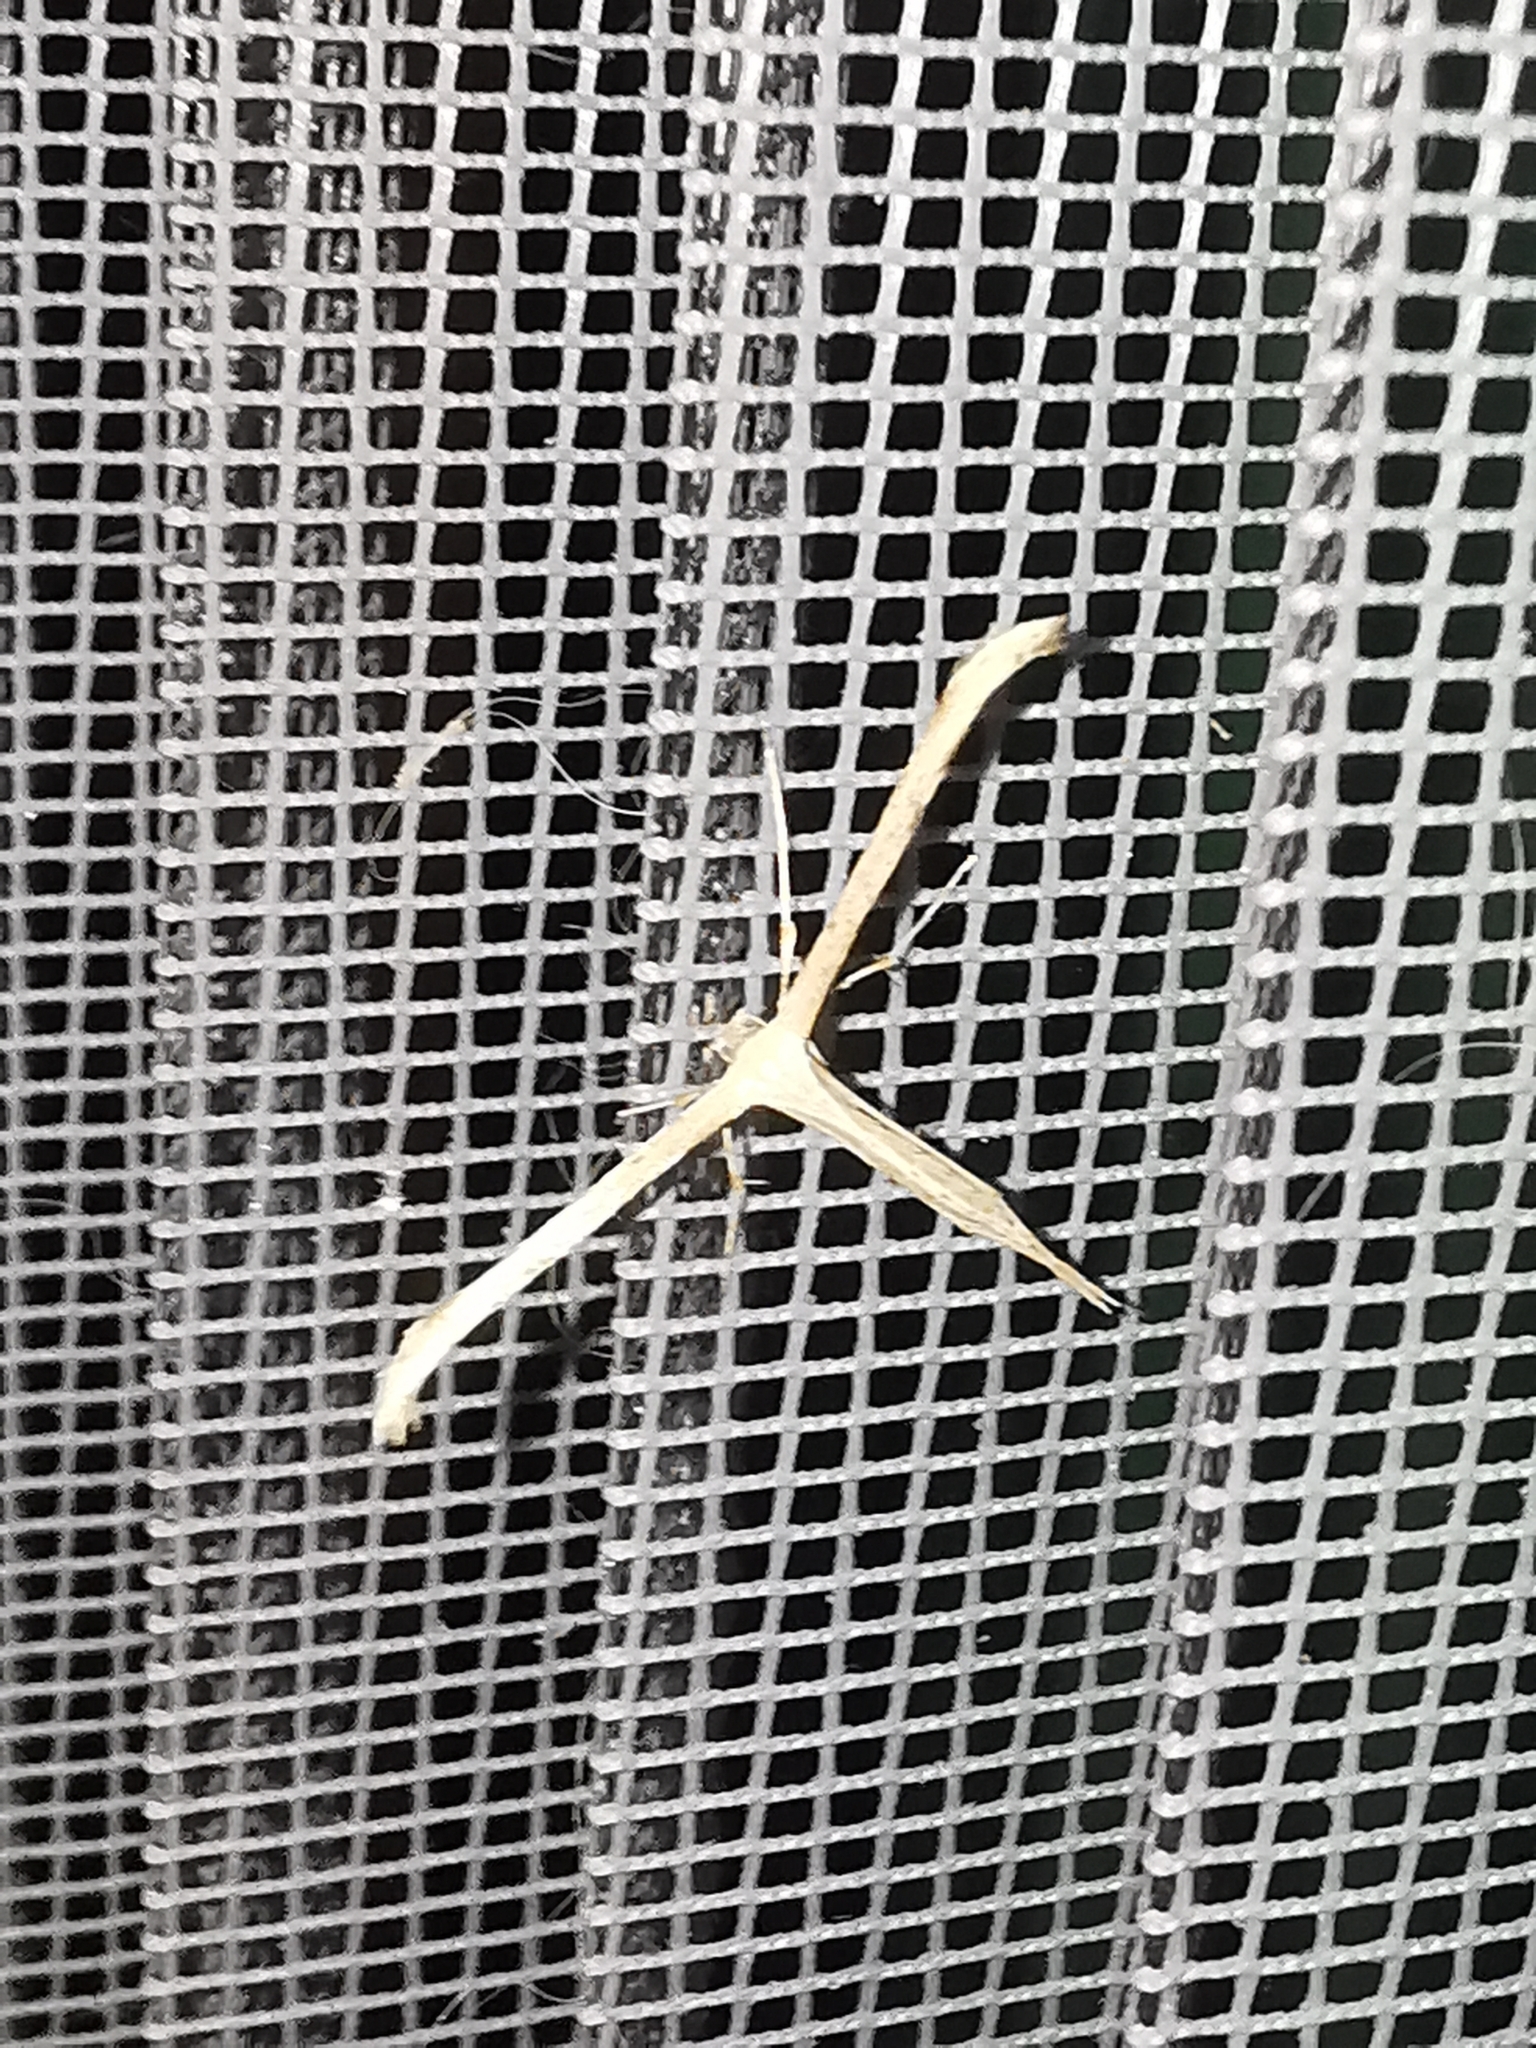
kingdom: Animalia
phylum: Arthropoda
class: Insecta
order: Lepidoptera
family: Pterophoridae
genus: Emmelina
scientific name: Emmelina monodactyla
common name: Common plume
